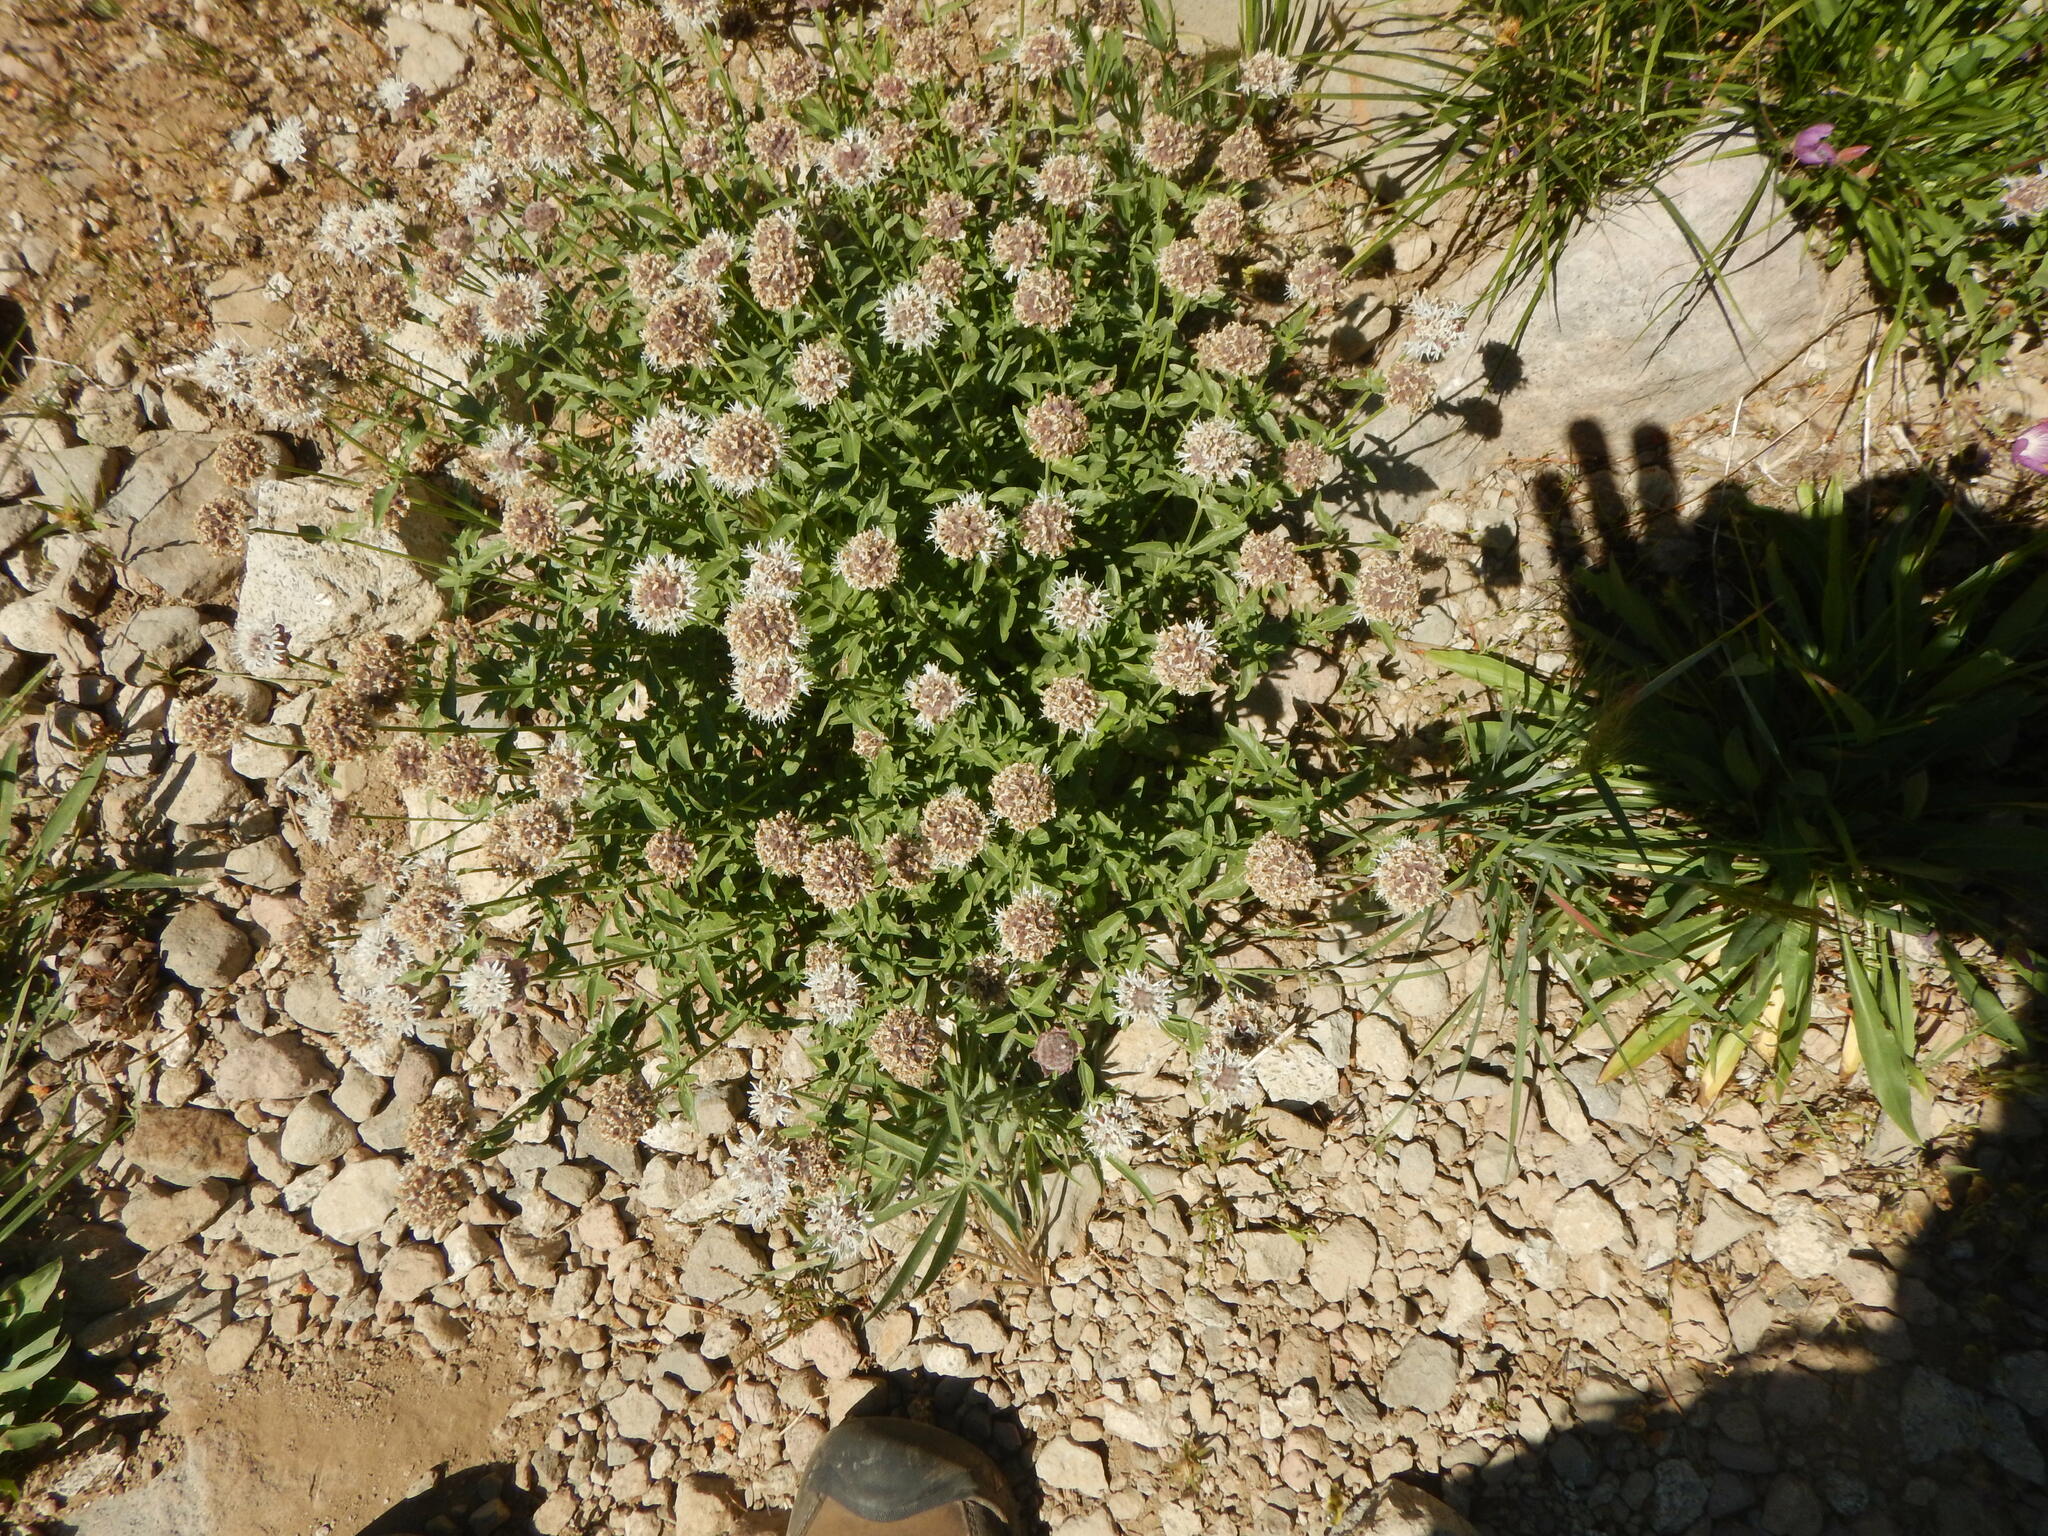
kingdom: Plantae
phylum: Tracheophyta
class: Magnoliopsida
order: Lamiales
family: Lamiaceae
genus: Monardella
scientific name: Monardella odoratissima
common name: Pacific monardella
